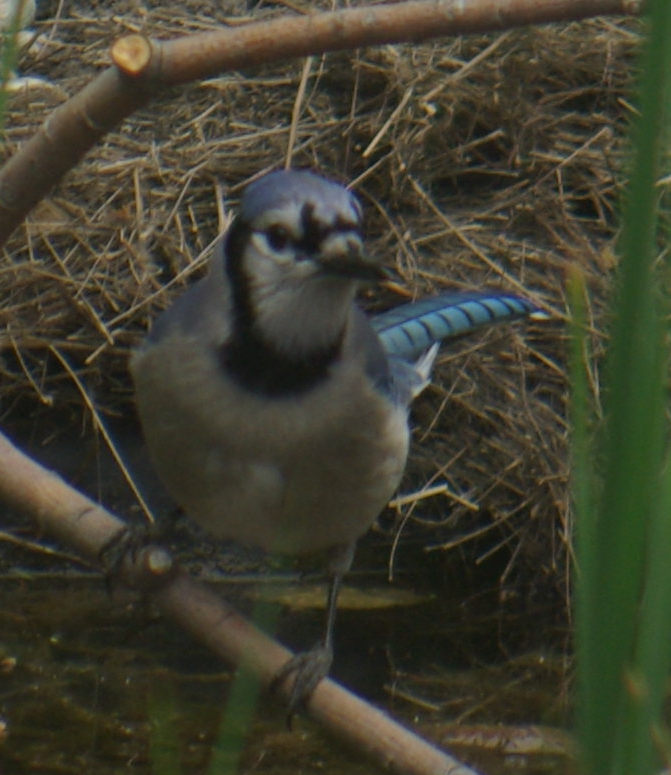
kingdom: Animalia
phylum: Chordata
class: Aves
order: Passeriformes
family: Corvidae
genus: Cyanocitta
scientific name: Cyanocitta cristata
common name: Blue jay
